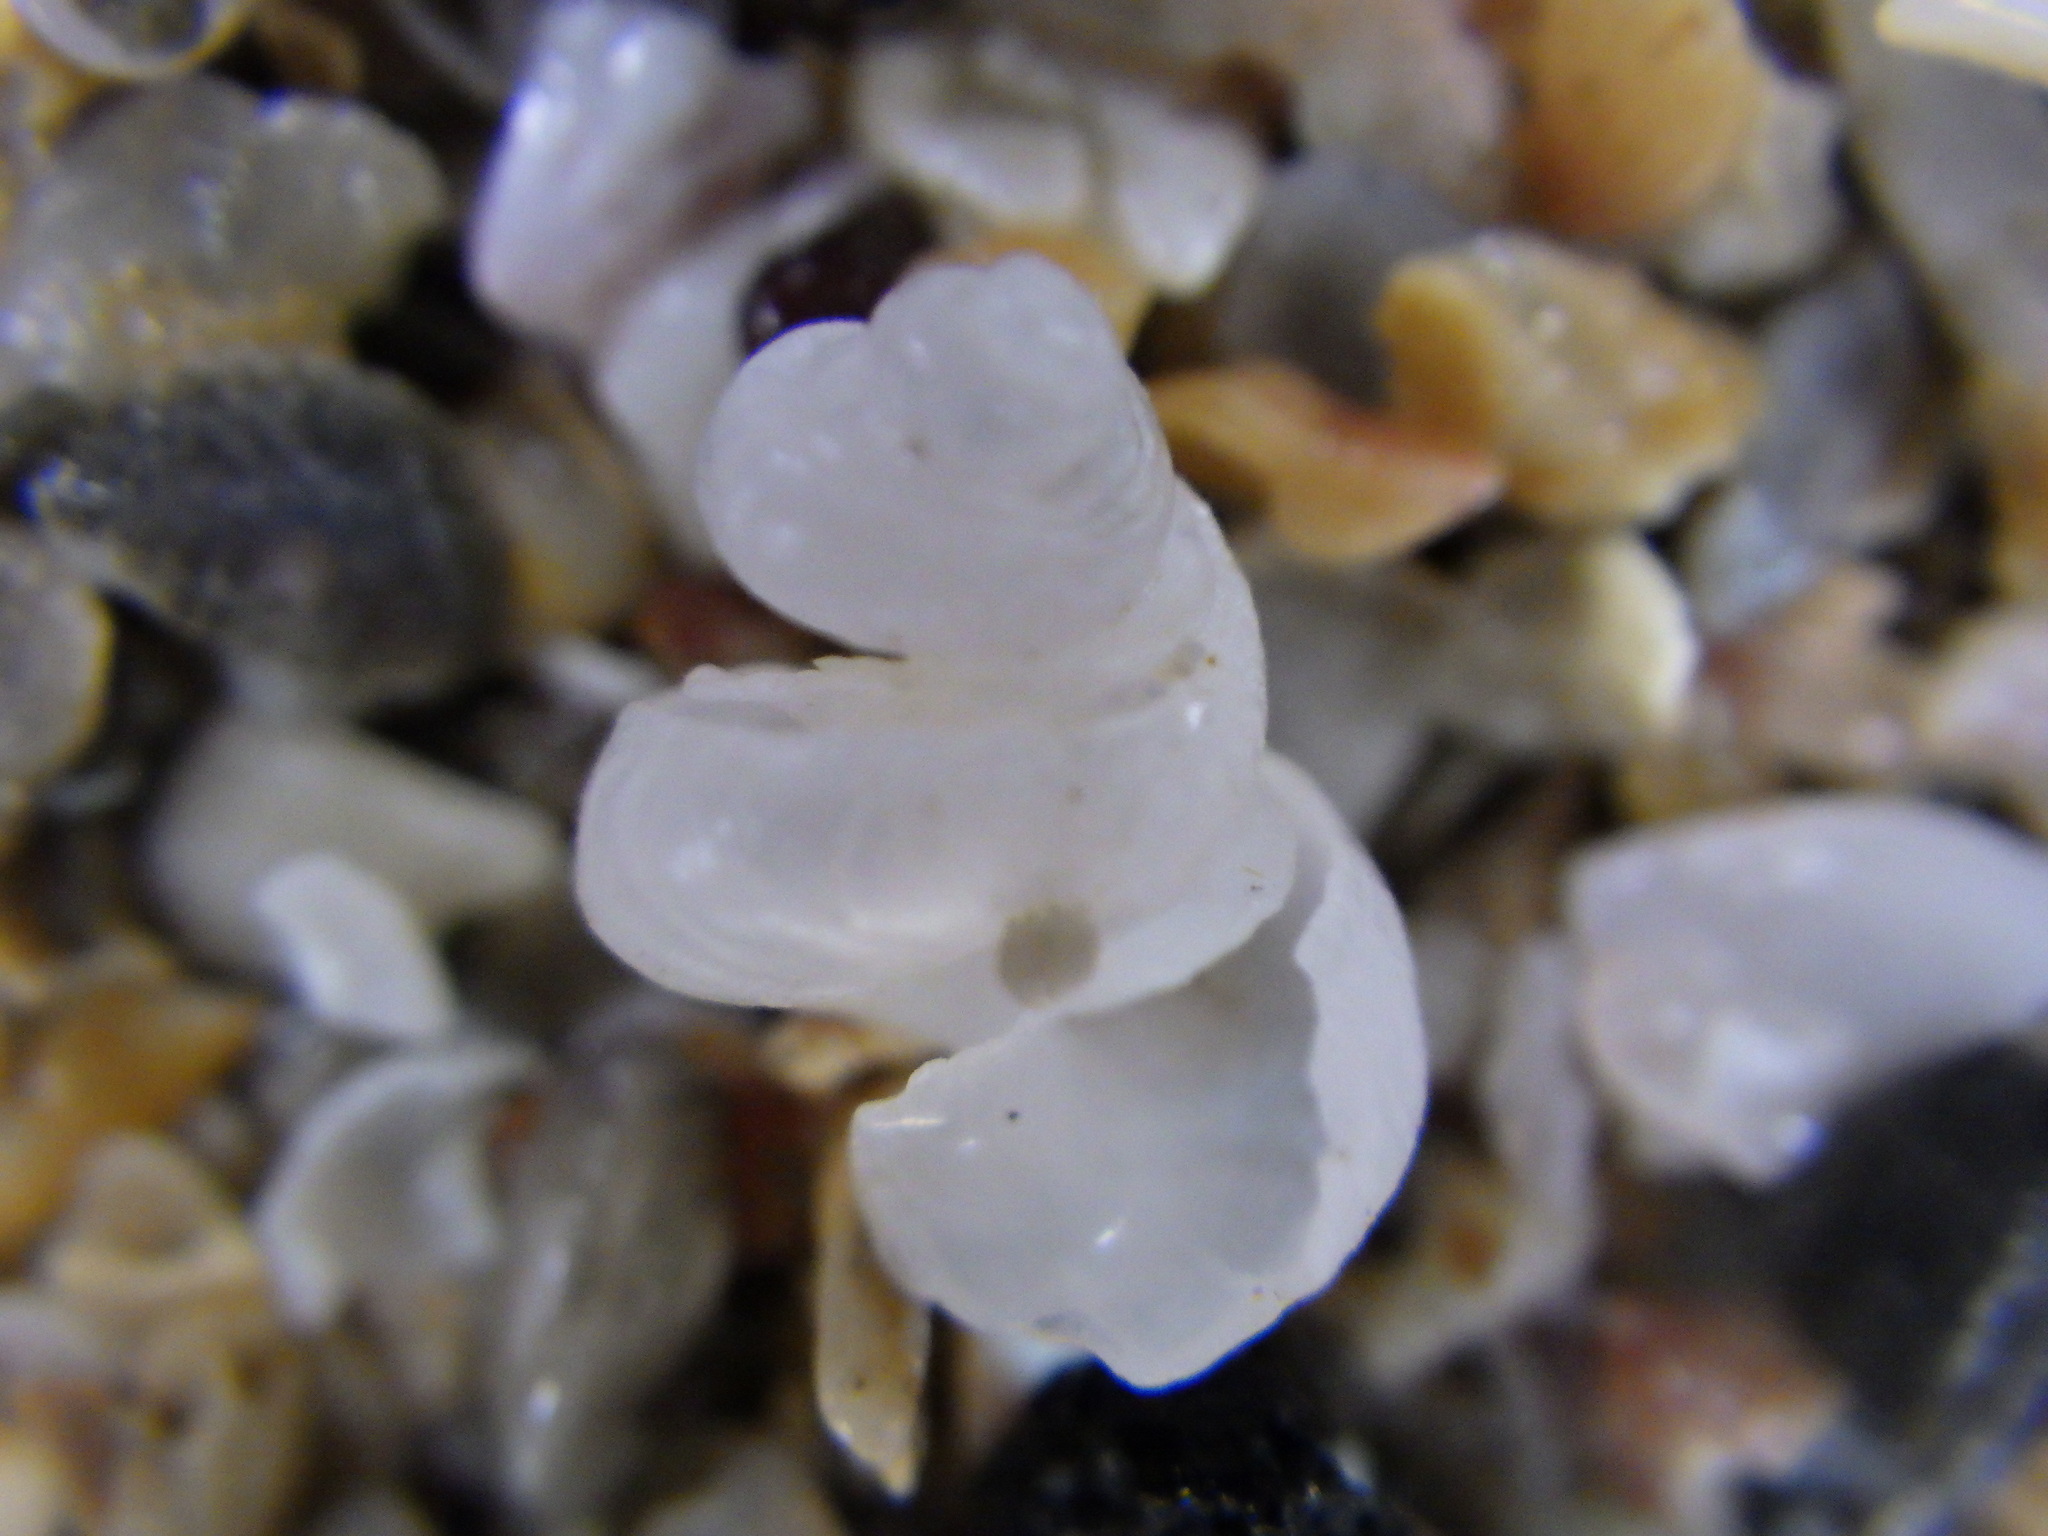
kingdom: Animalia
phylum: Mollusca
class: Gastropoda
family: Siliquariidae
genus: Tenagodus
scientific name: Tenagodus weldii
